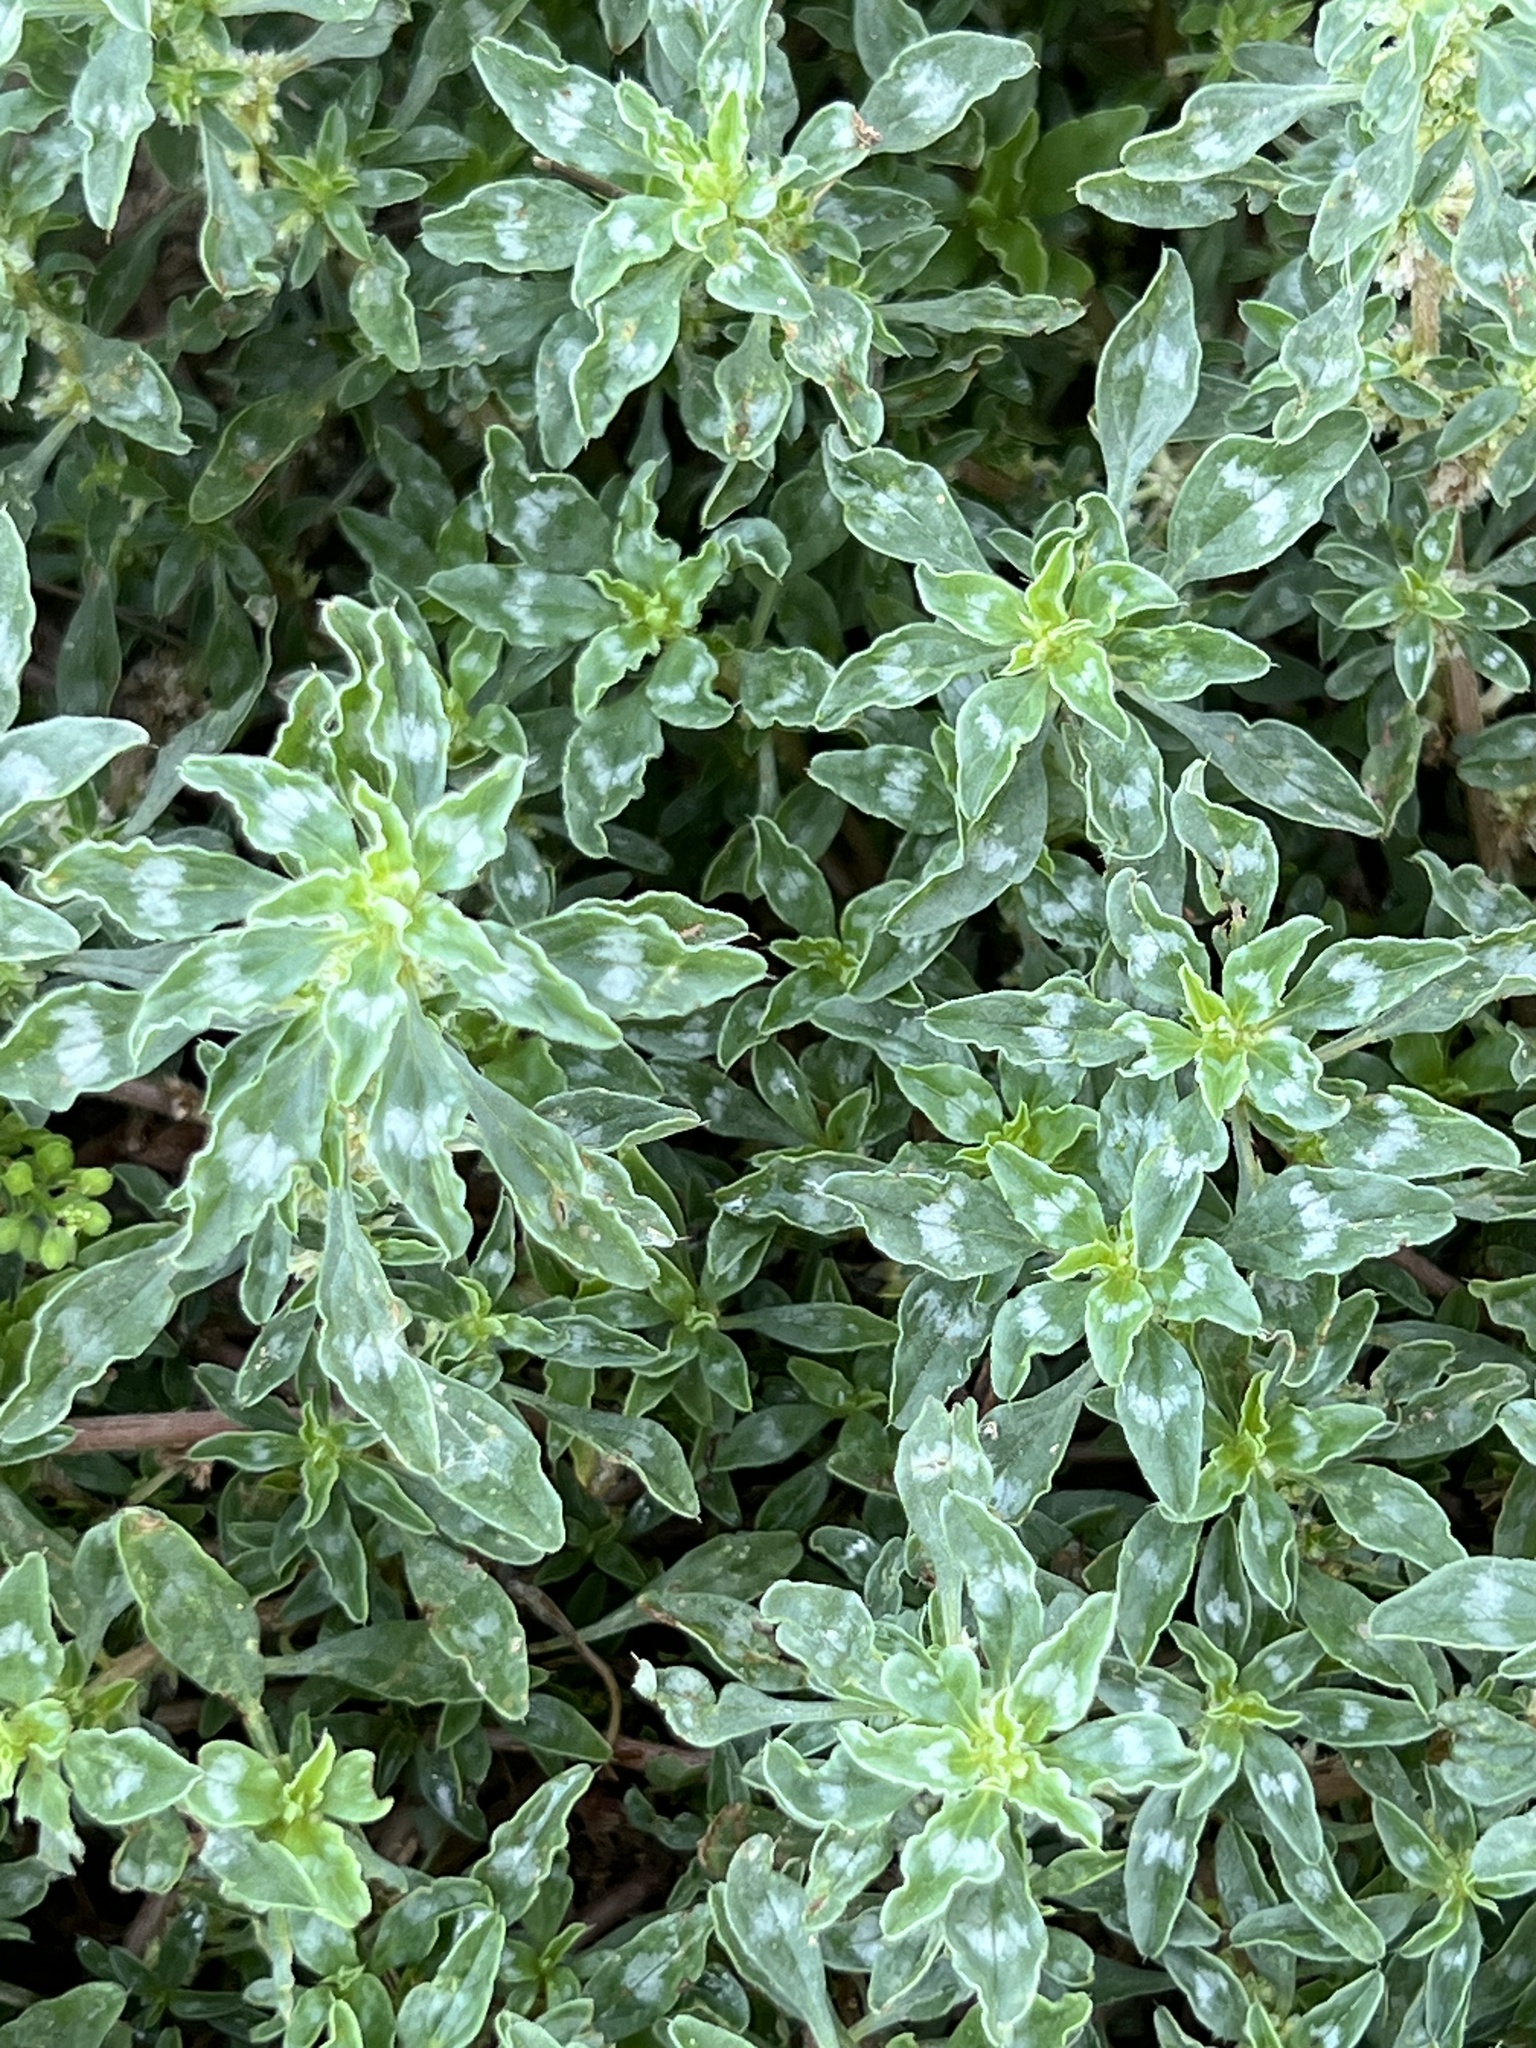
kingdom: Plantae
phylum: Tracheophyta
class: Magnoliopsida
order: Caryophyllales
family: Amaranthaceae
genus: Amaranthus
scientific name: Amaranthus polygonoides
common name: Tropical amaranth
